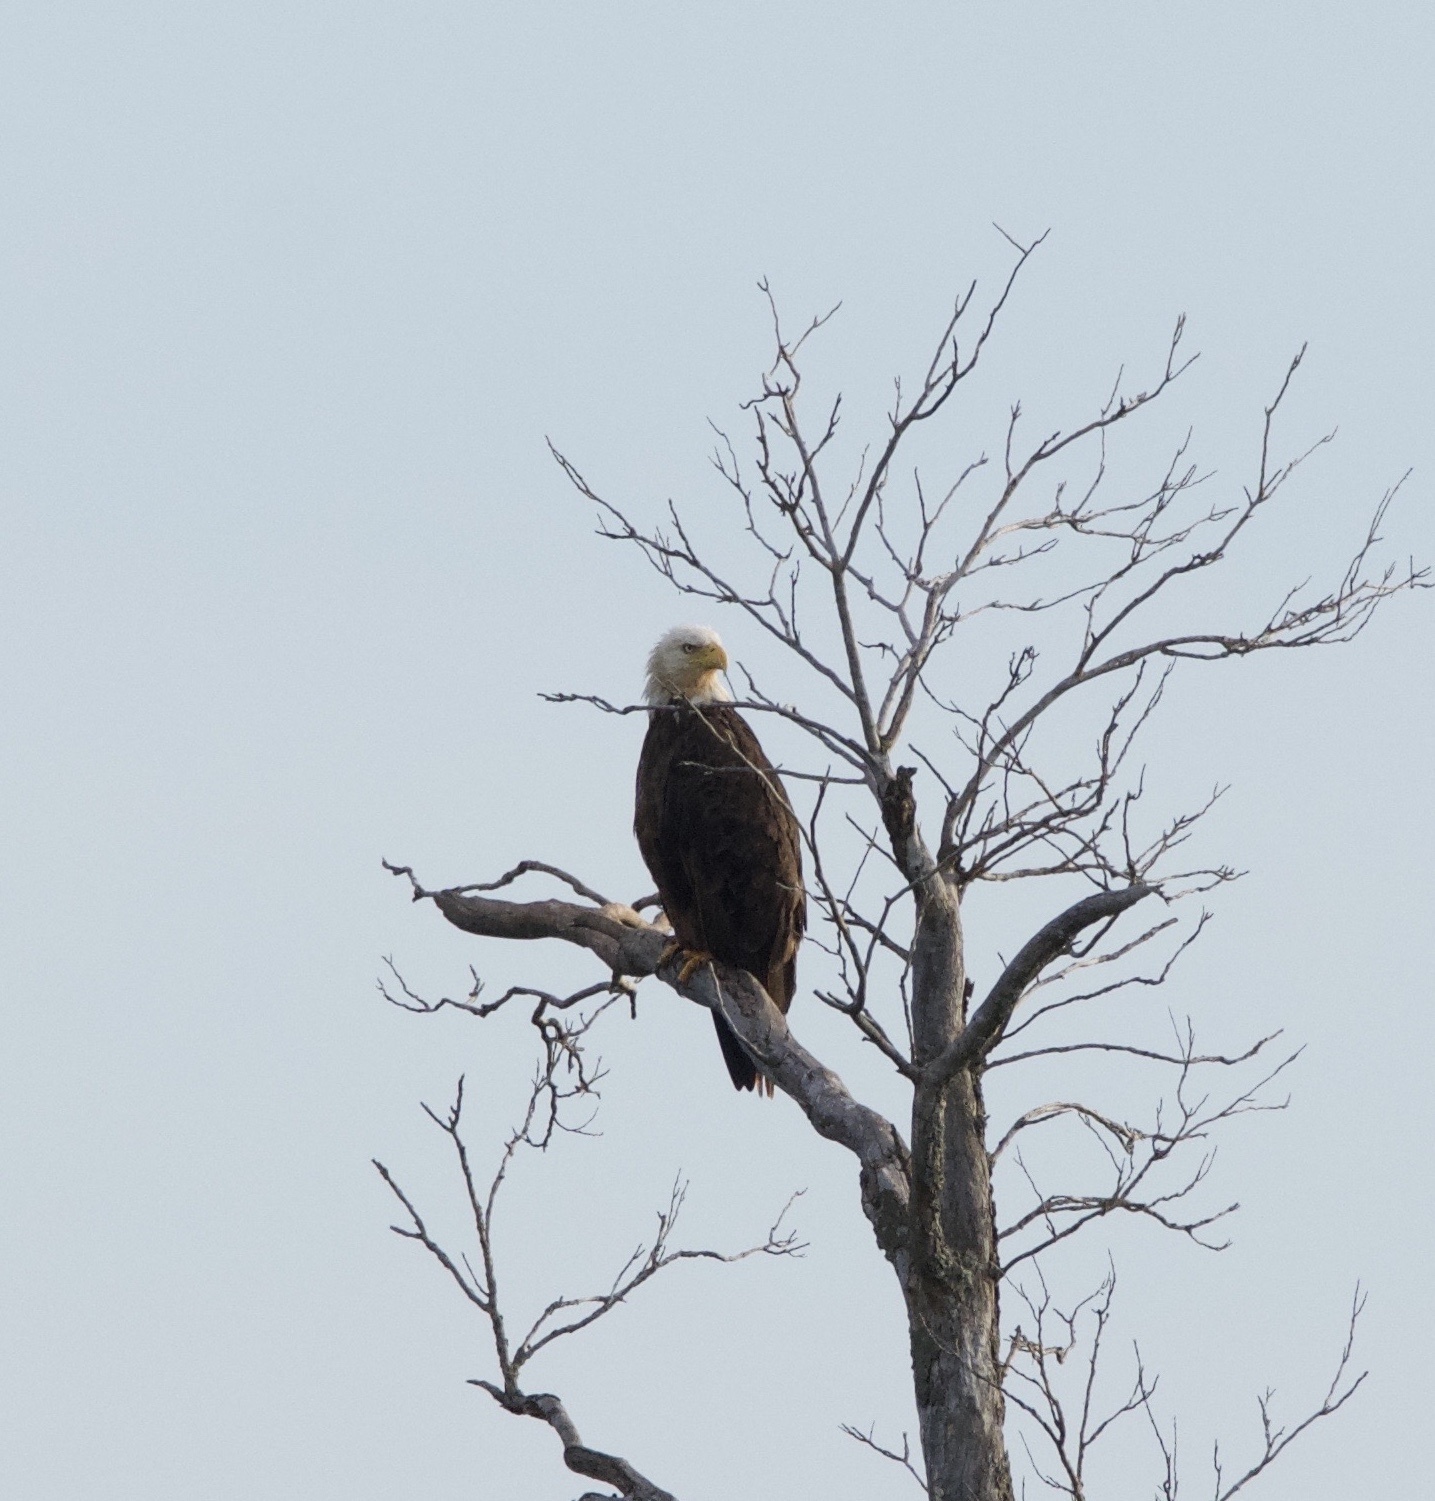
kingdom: Animalia
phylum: Chordata
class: Aves
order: Accipitriformes
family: Accipitridae
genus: Haliaeetus
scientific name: Haliaeetus leucocephalus
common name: Bald eagle
